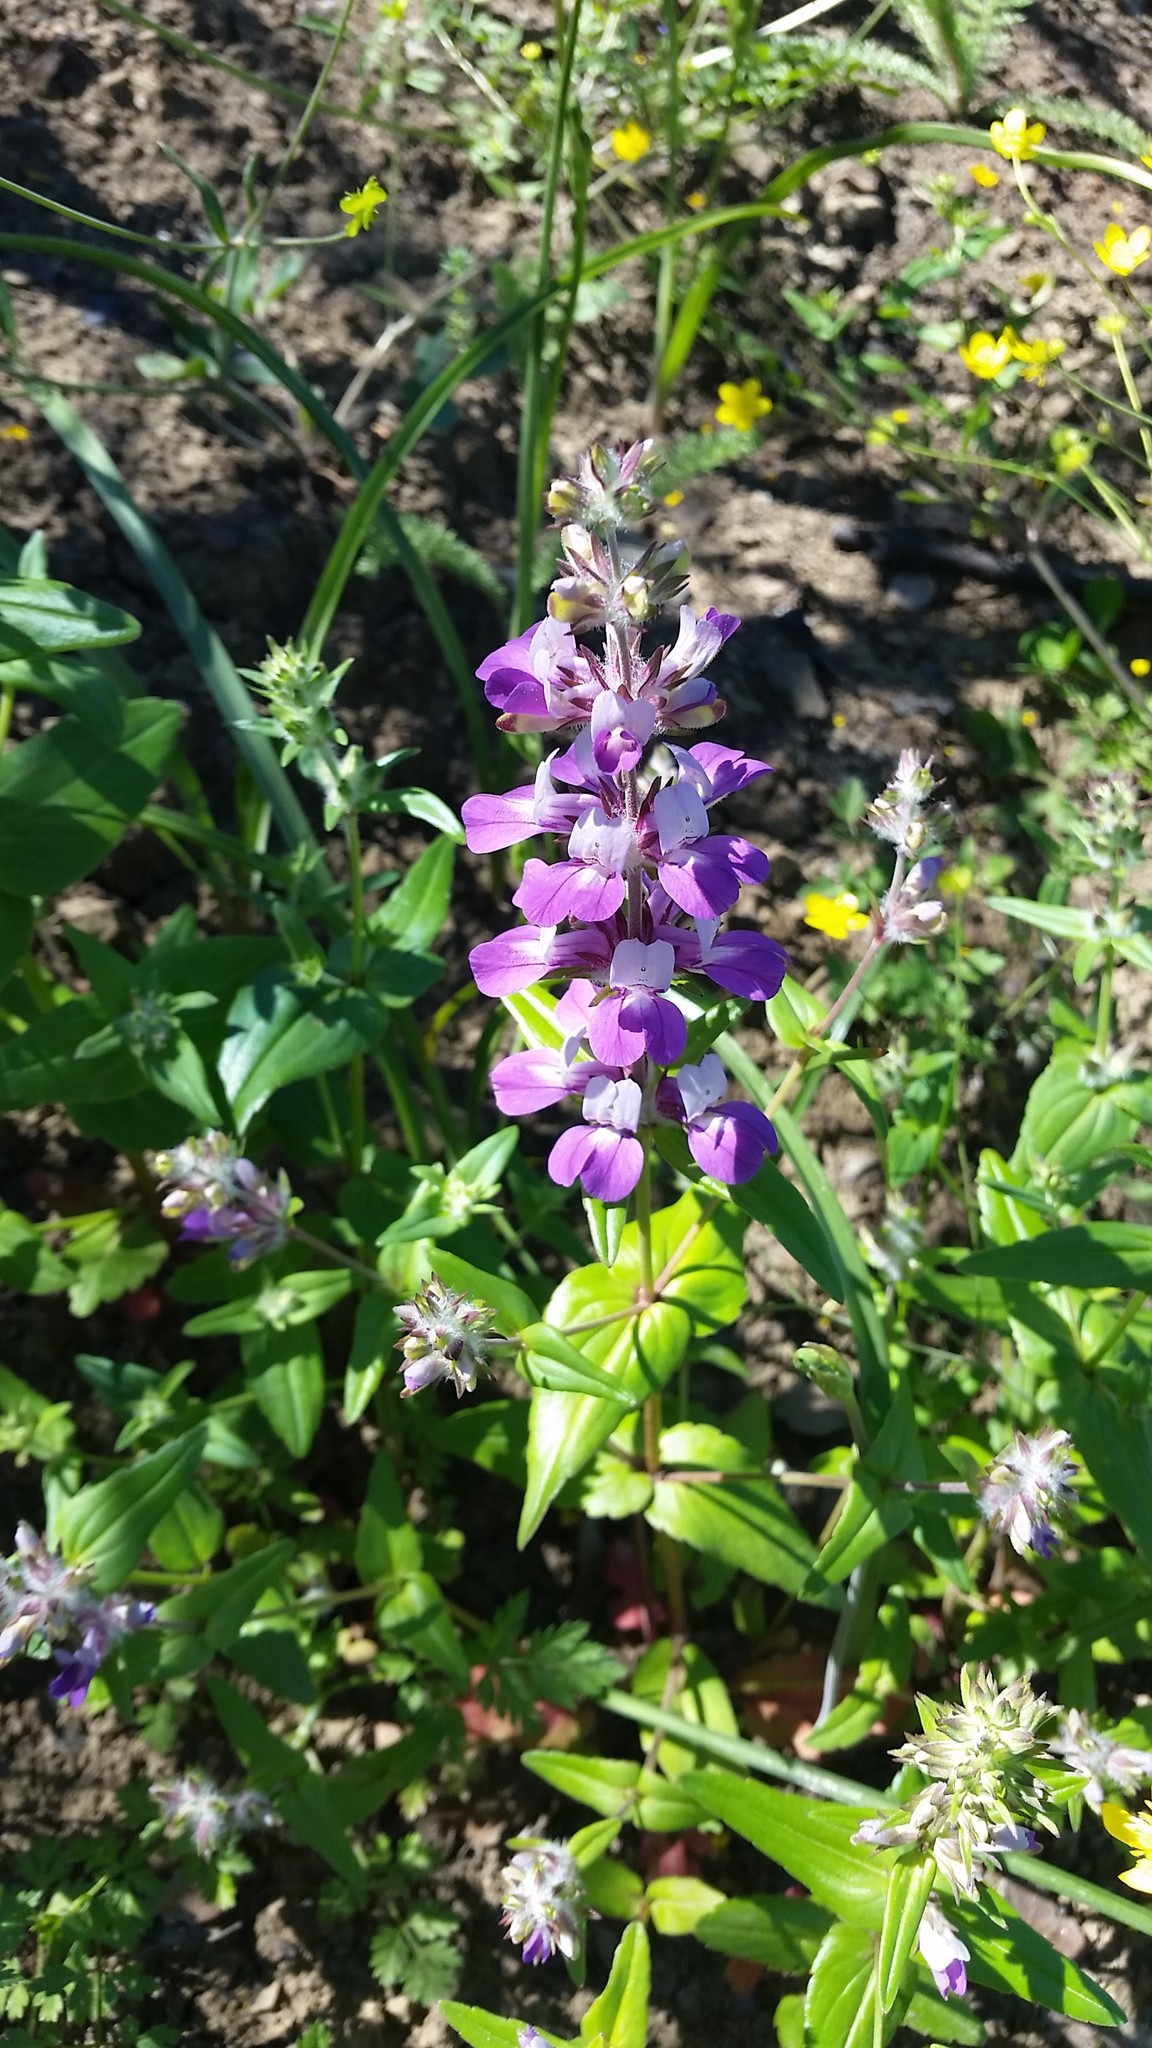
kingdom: Plantae
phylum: Tracheophyta
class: Magnoliopsida
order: Lamiales
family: Plantaginaceae
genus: Collinsia
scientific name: Collinsia heterophylla
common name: Chinese-houses
